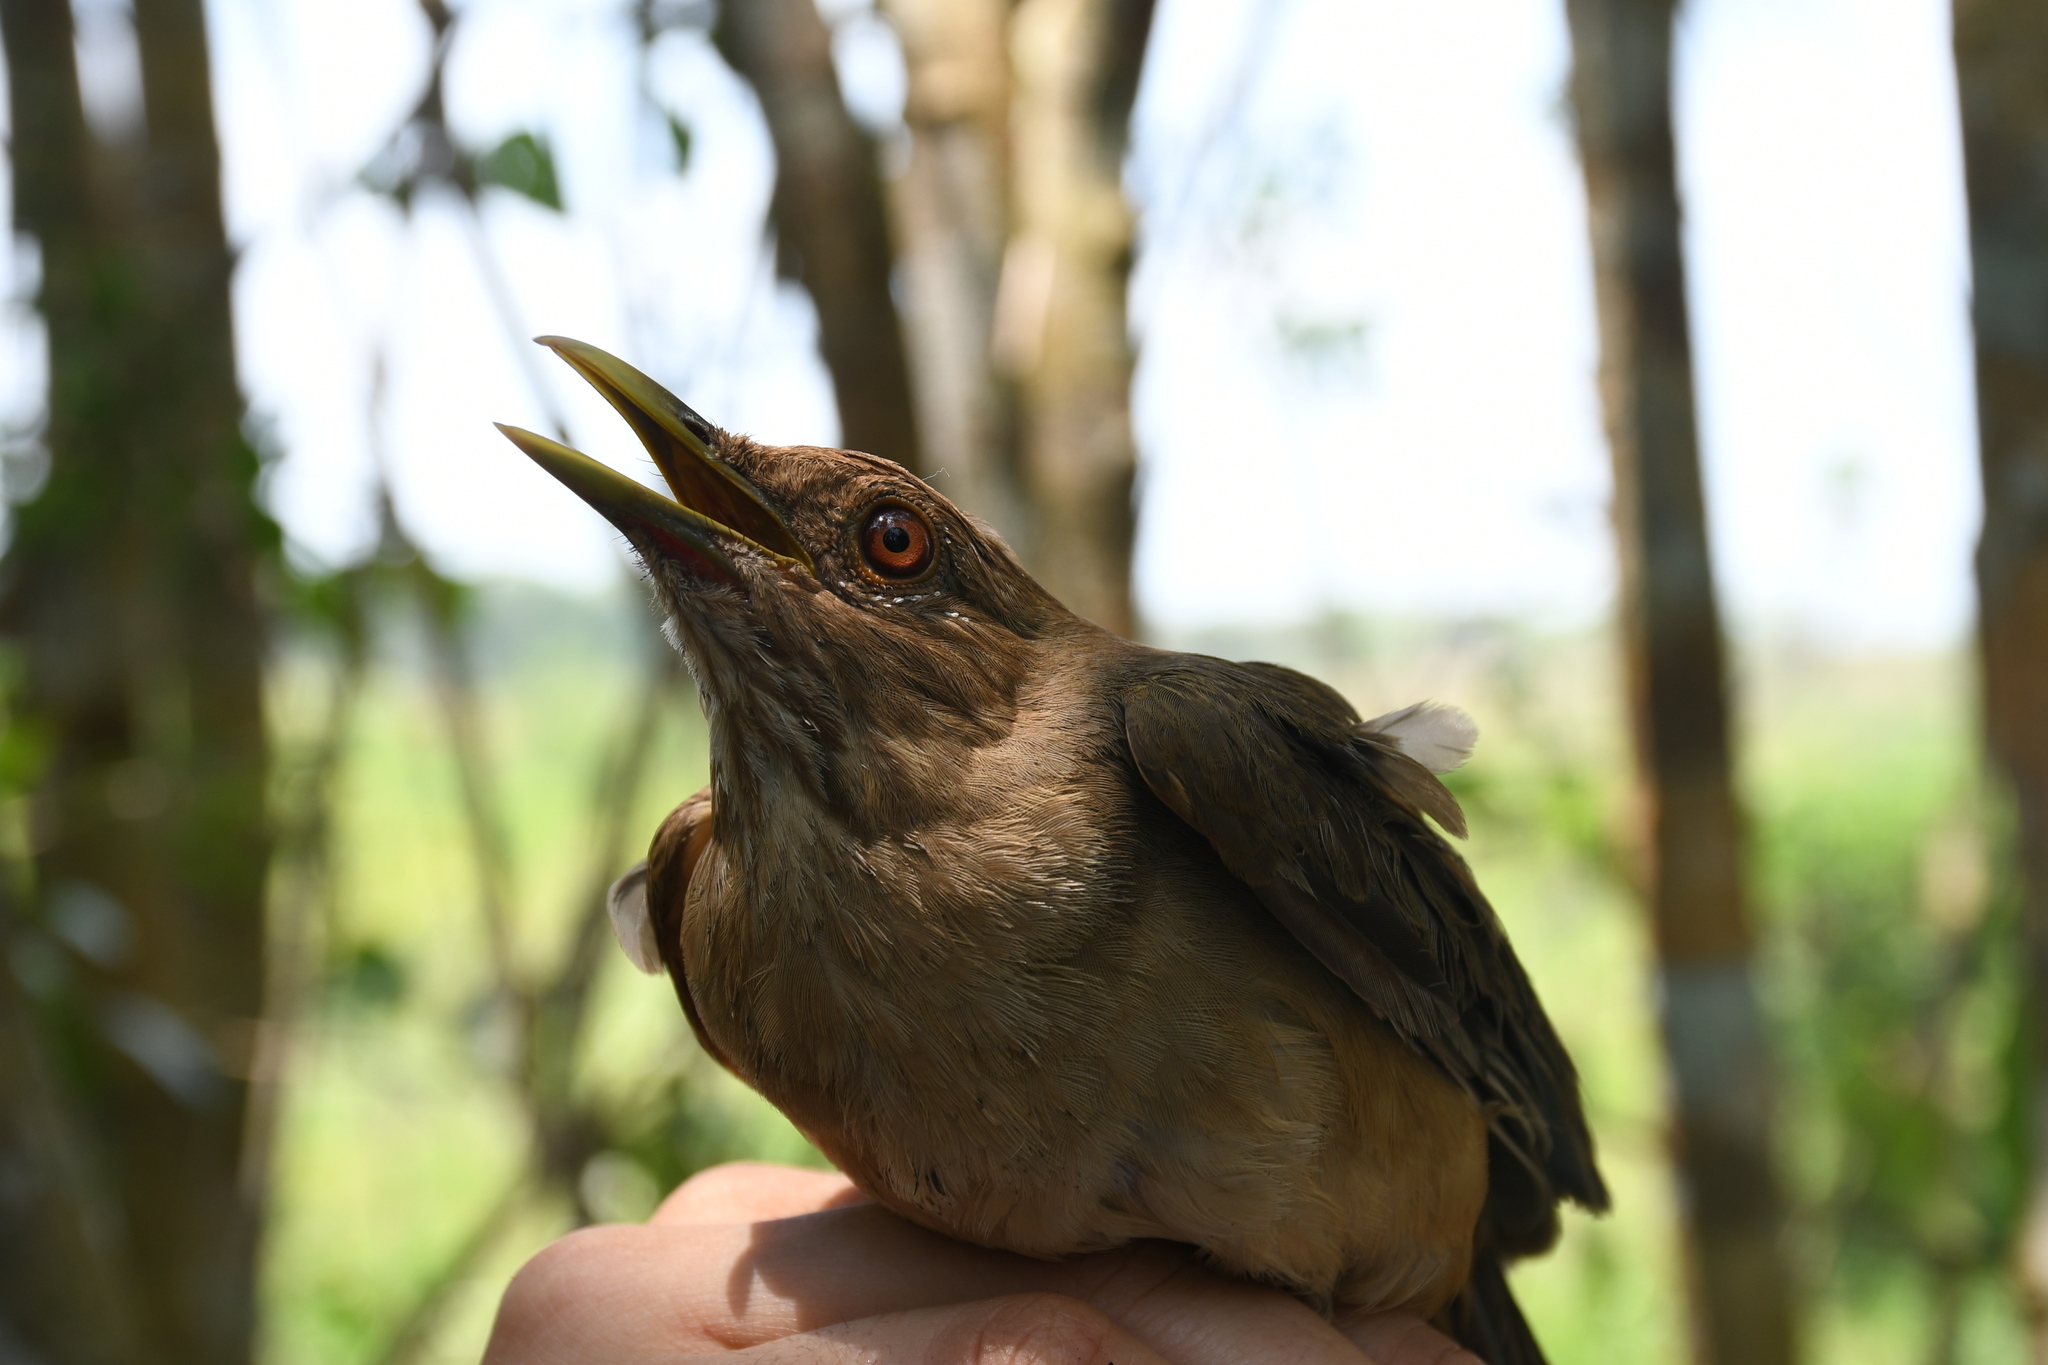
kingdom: Animalia
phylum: Chordata
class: Aves
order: Passeriformes
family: Turdidae
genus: Turdus
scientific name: Turdus grayi
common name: Clay-colored thrush
